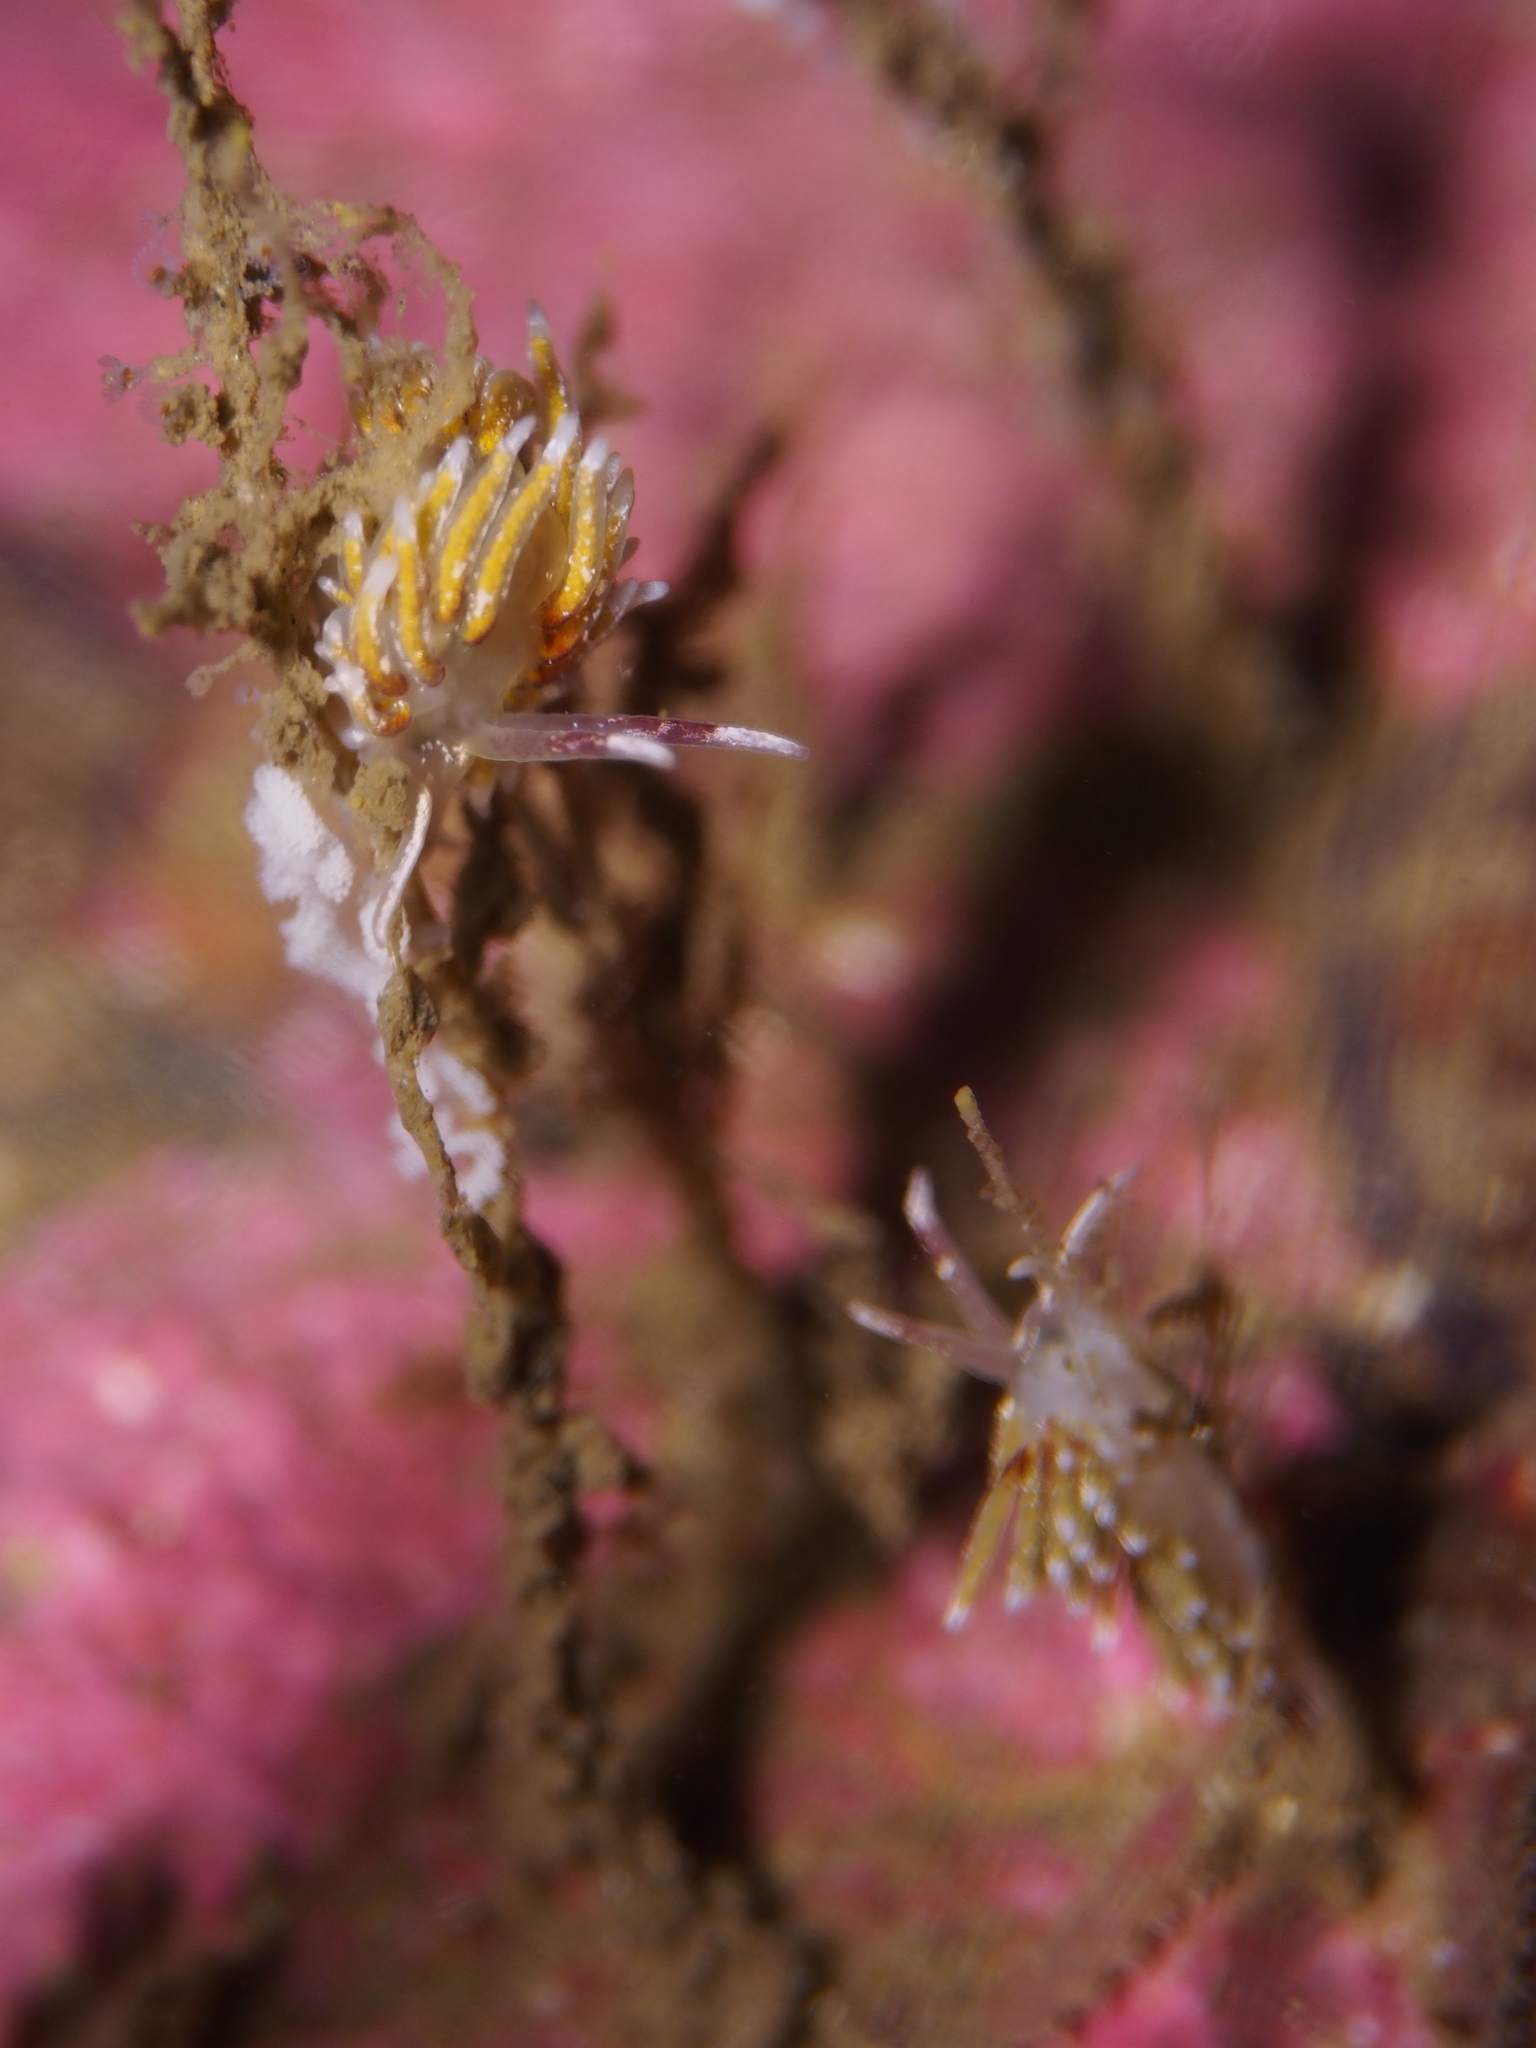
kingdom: Animalia
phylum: Mollusca
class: Gastropoda
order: Nudibranchia
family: Trinchesiidae
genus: Rubramoena
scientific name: Rubramoena rubescens
